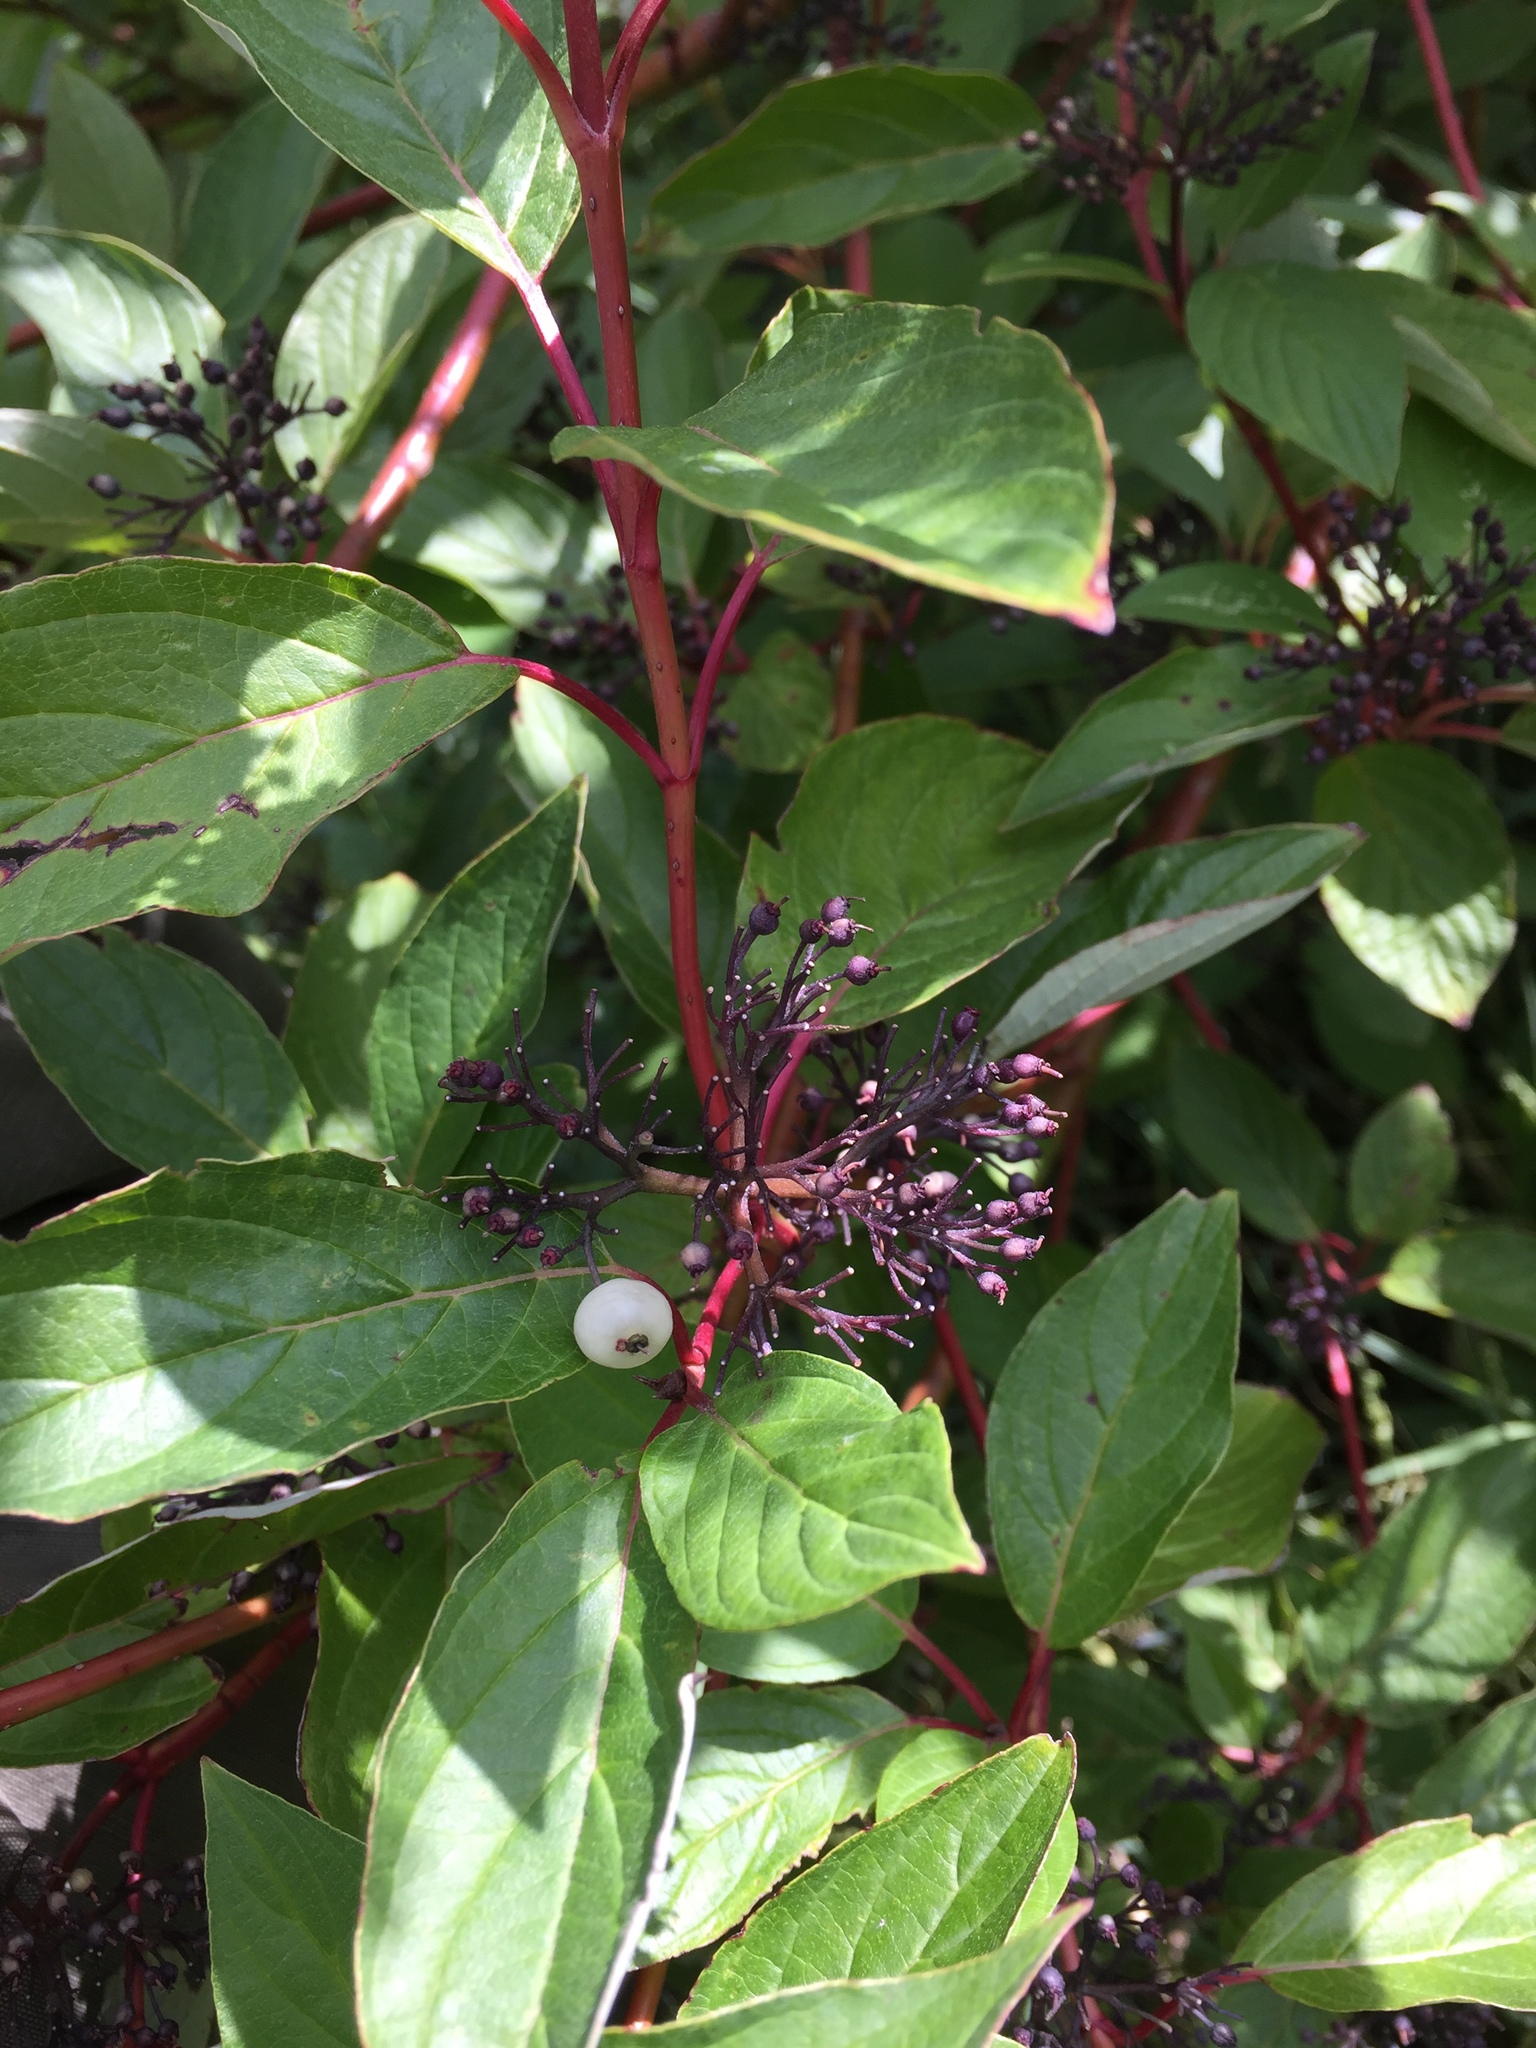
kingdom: Plantae
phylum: Tracheophyta
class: Magnoliopsida
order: Cornales
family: Cornaceae
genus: Cornus
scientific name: Cornus sericea
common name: Red-osier dogwood
